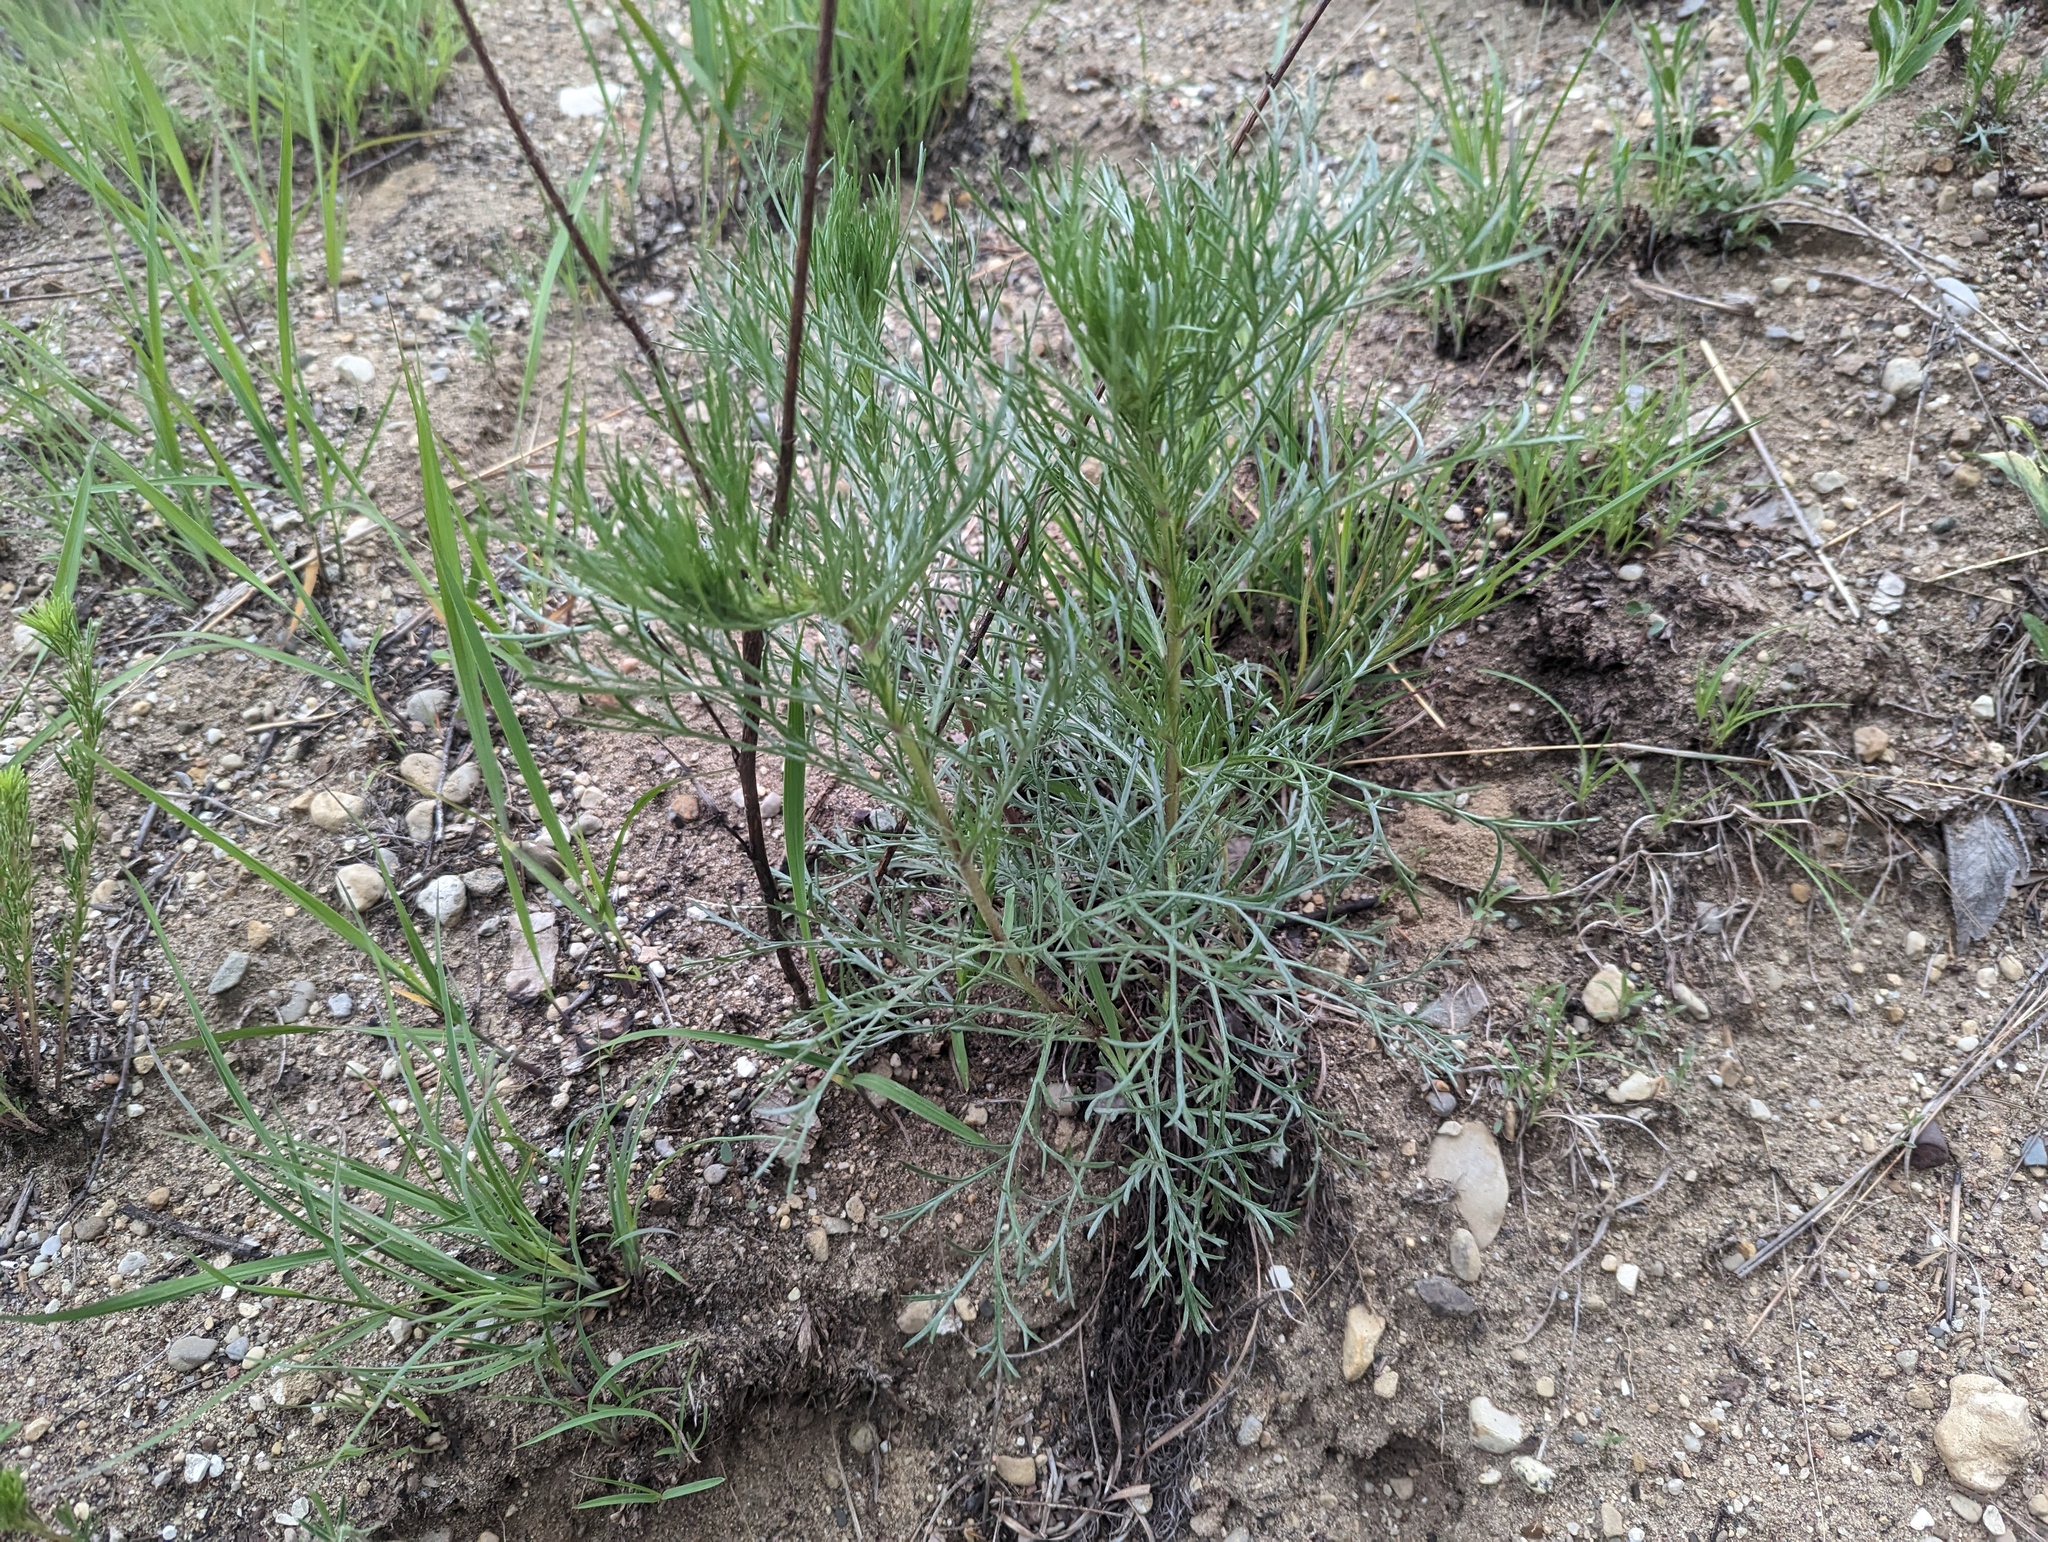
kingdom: Plantae
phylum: Tracheophyta
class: Magnoliopsida
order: Asterales
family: Asteraceae
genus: Artemisia
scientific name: Artemisia campestris
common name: Field wormwood
